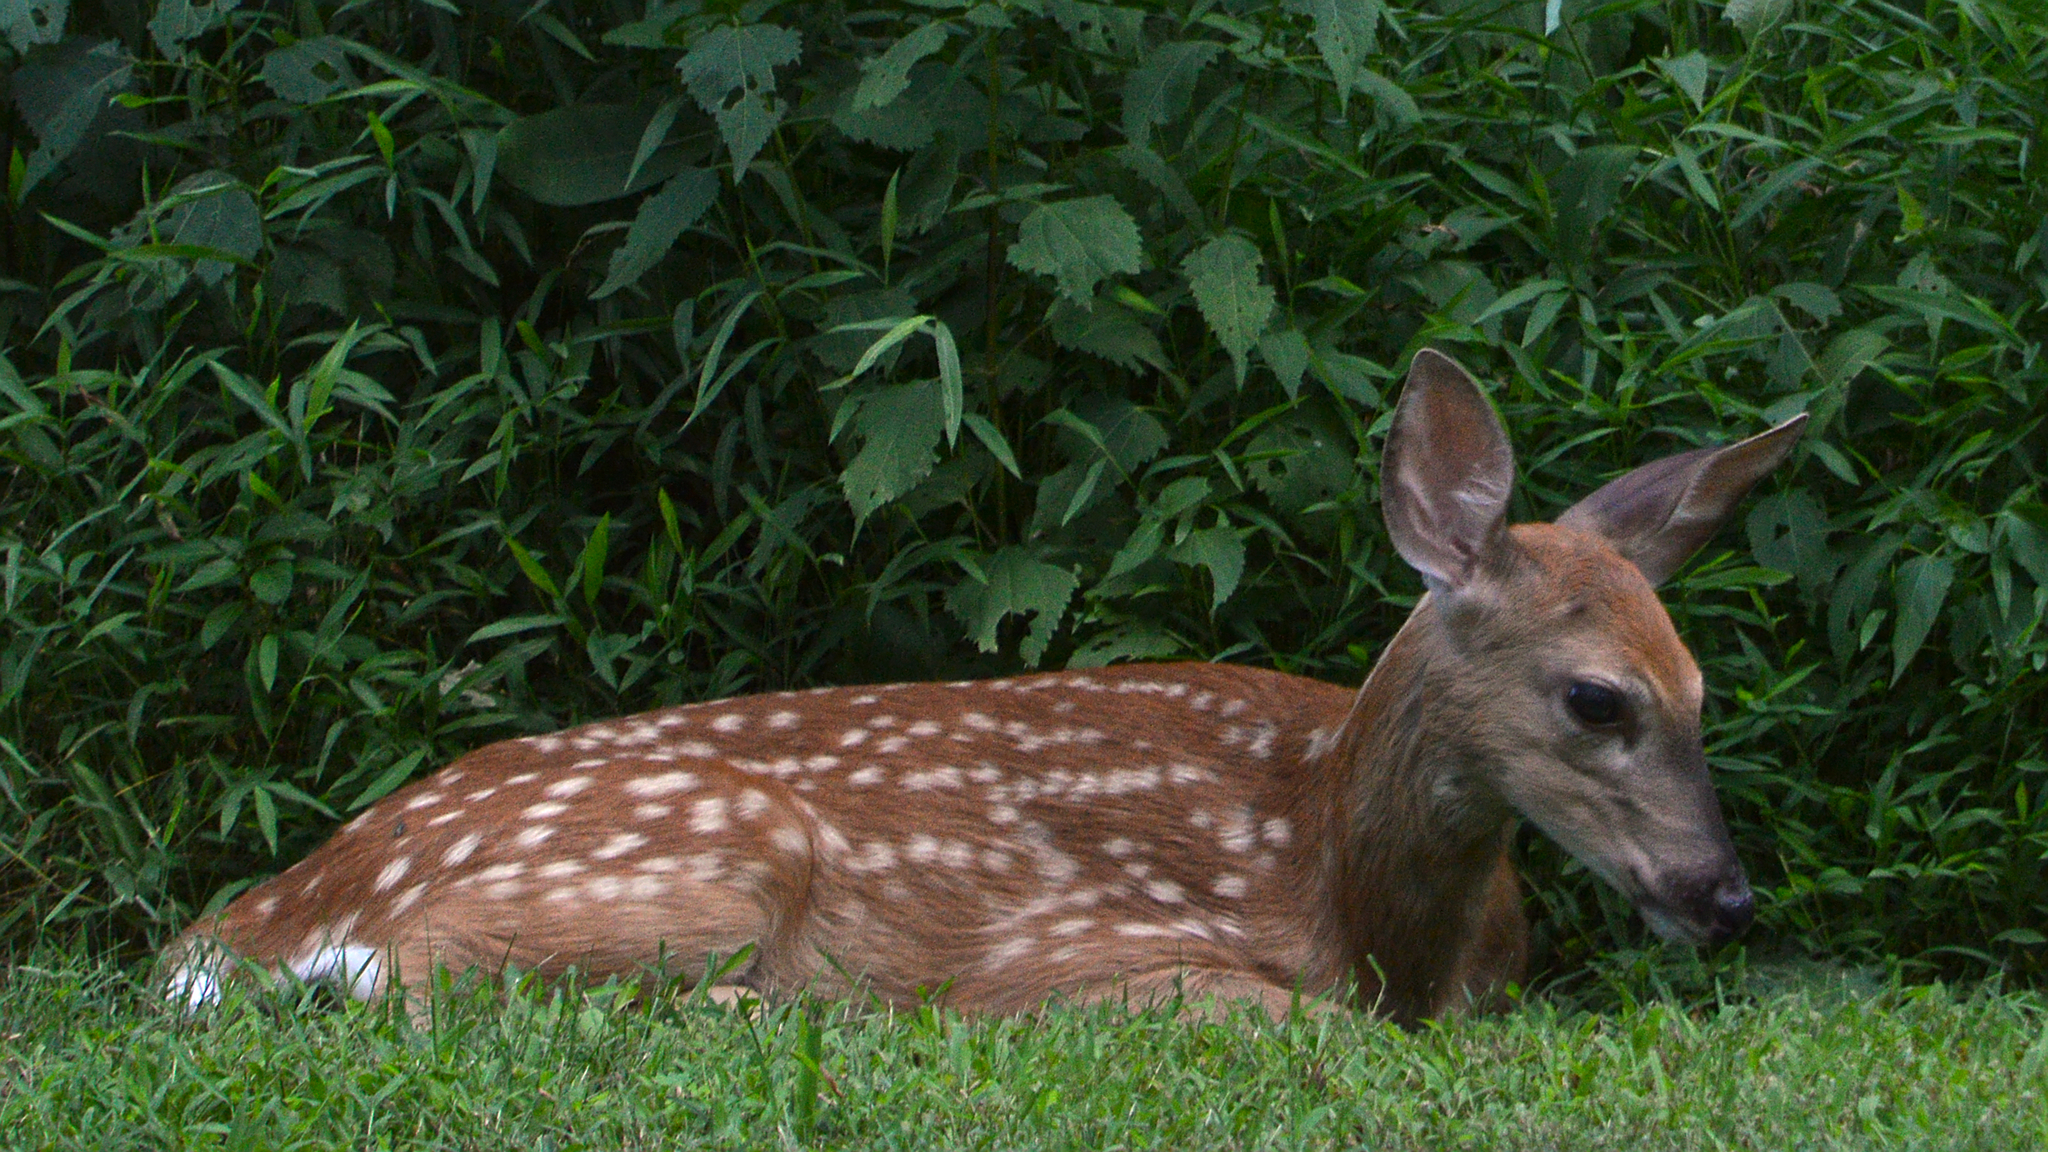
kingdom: Animalia
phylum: Chordata
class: Mammalia
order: Artiodactyla
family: Cervidae
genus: Odocoileus
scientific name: Odocoileus virginianus
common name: White-tailed deer
